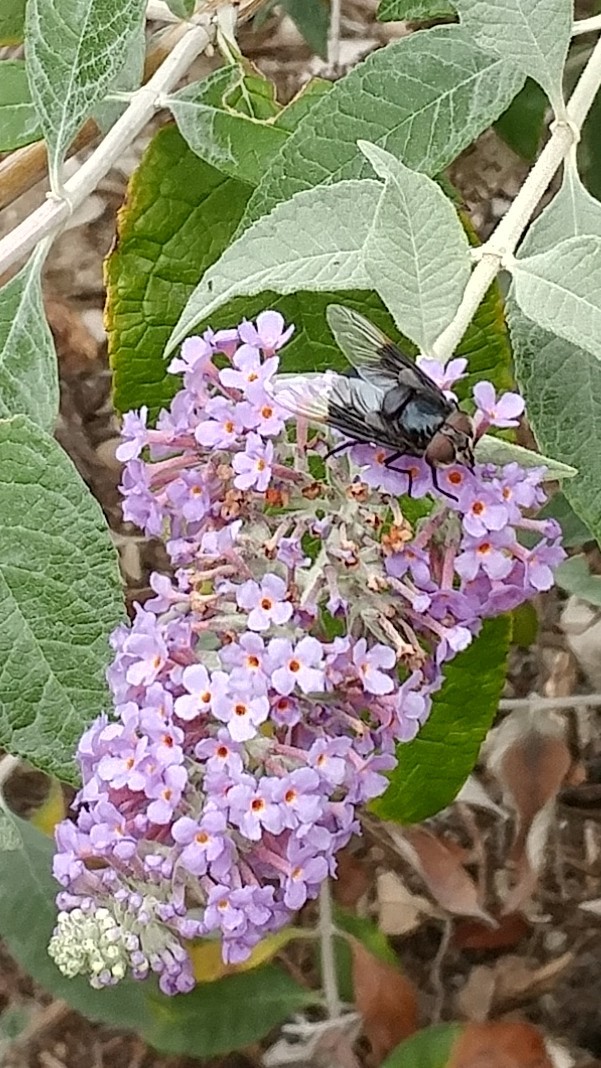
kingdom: Animalia
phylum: Arthropoda
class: Insecta
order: Diptera
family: Syrphidae
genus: Copestylum
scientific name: Copestylum mexicanum
